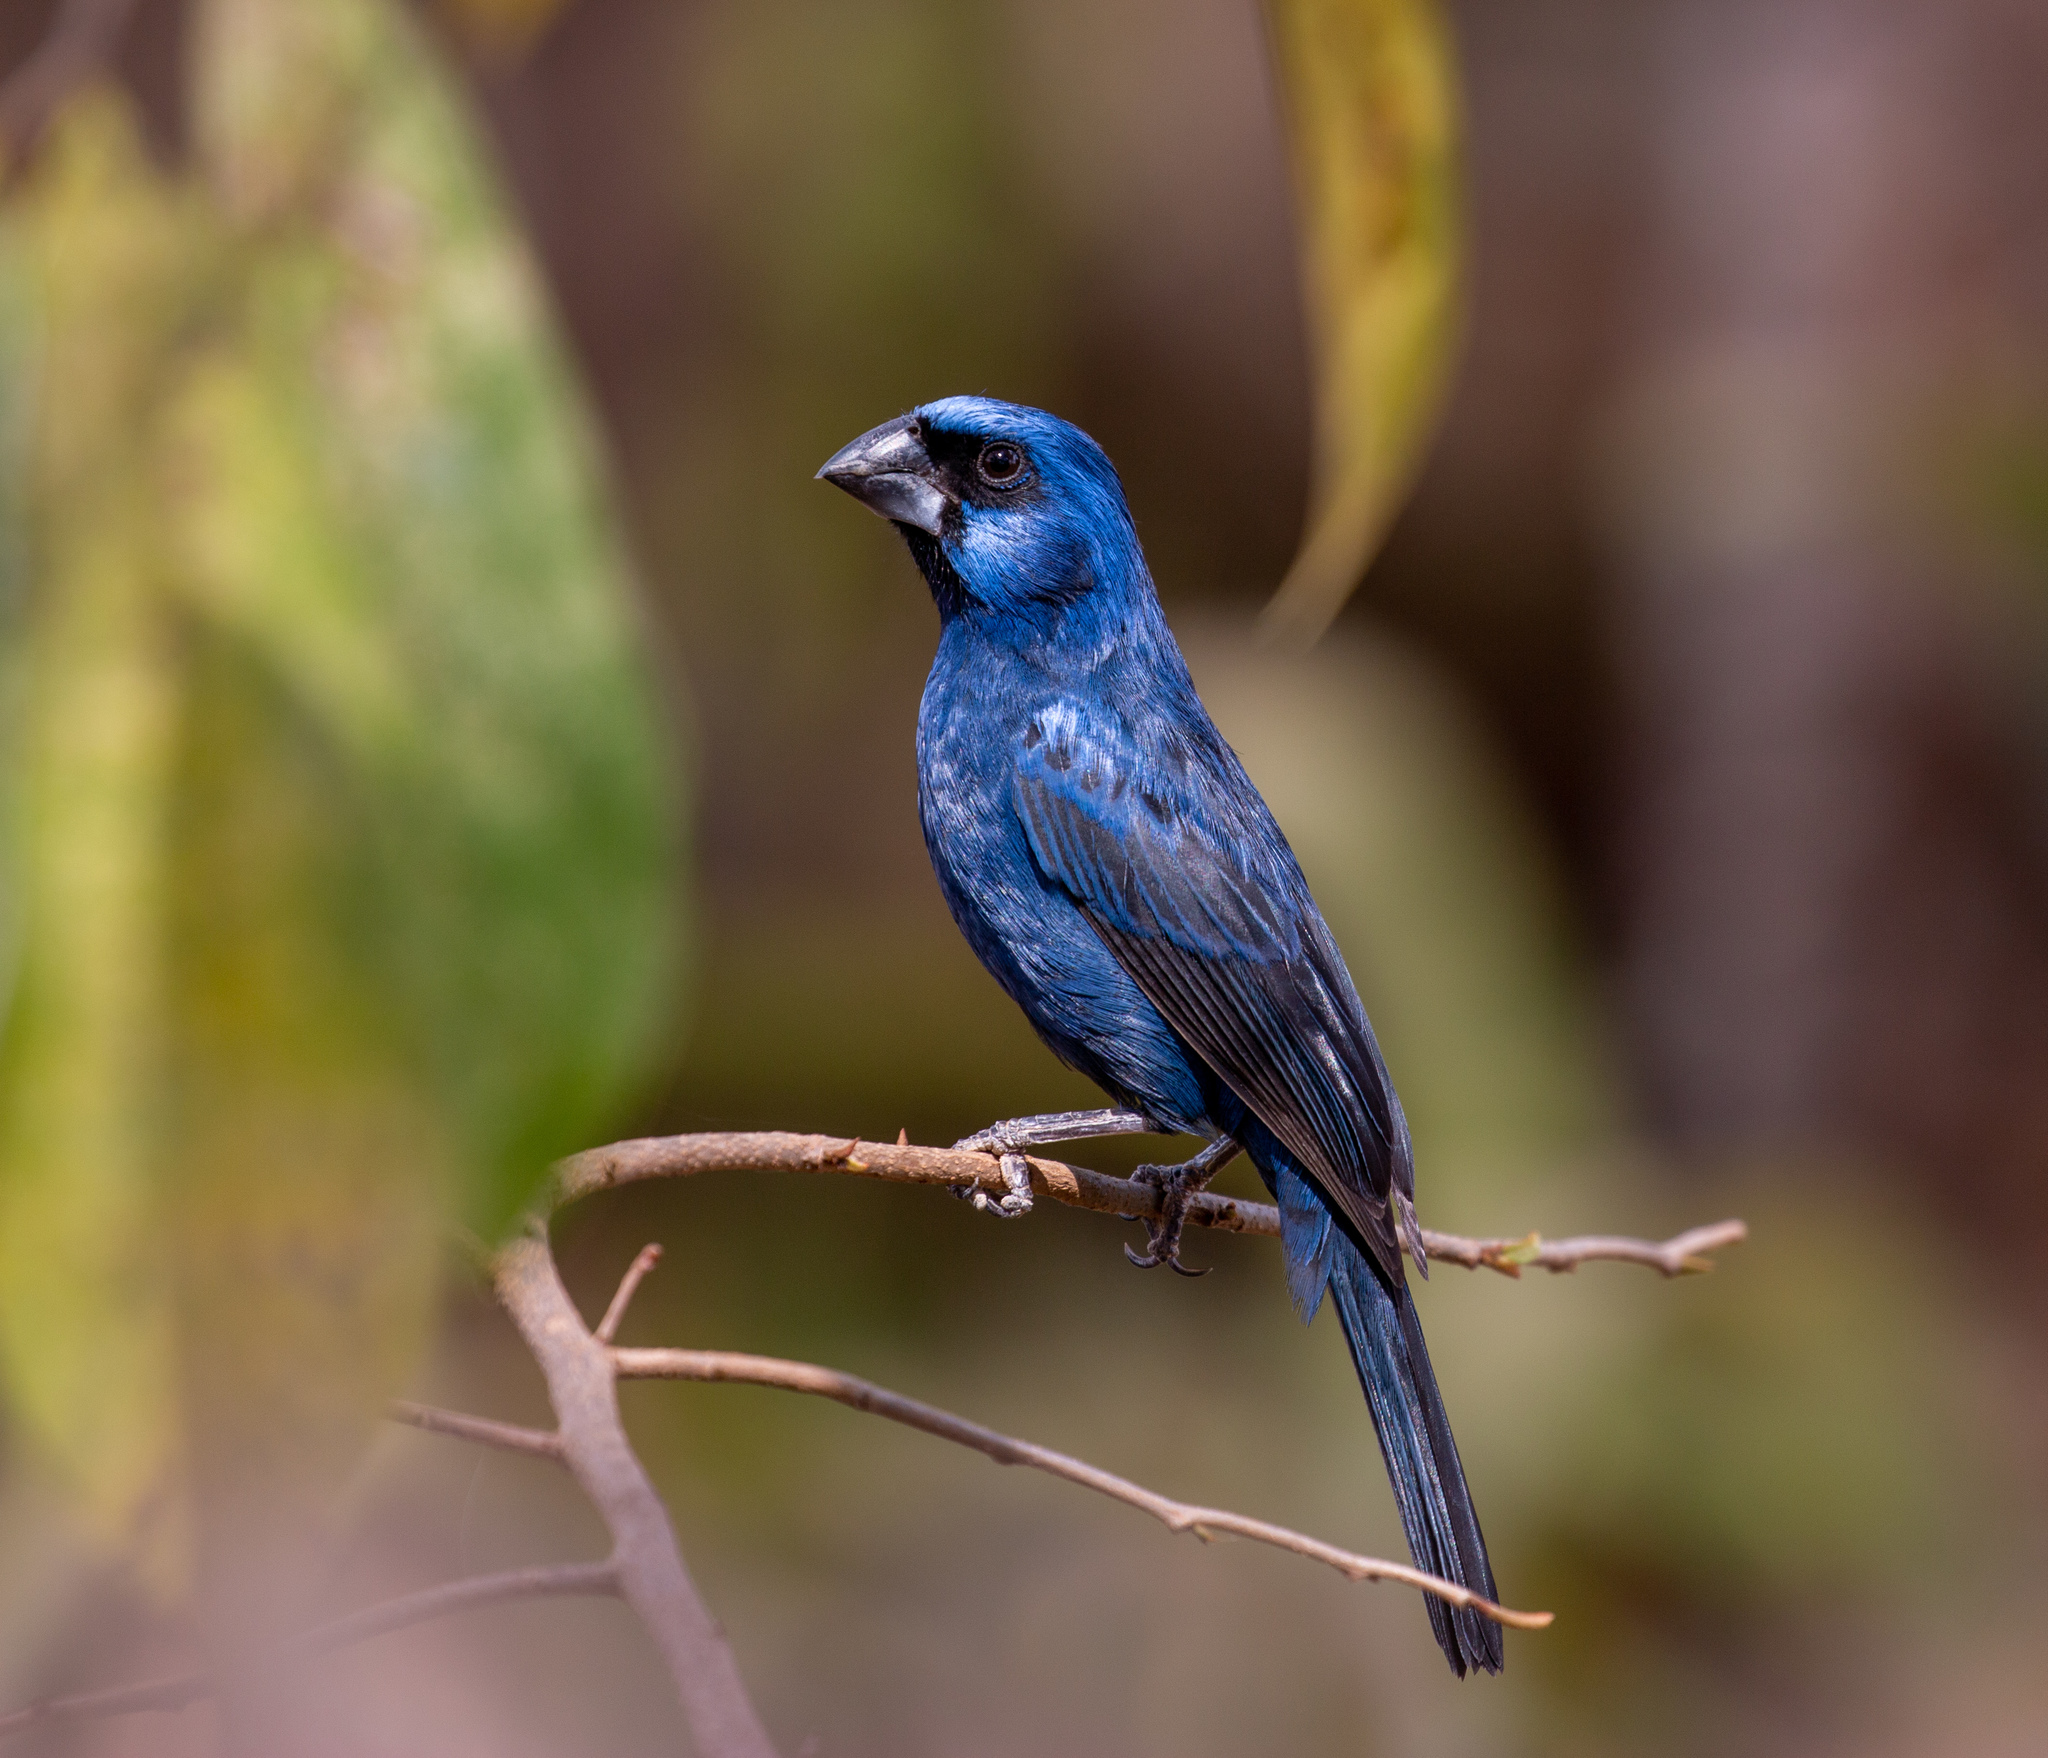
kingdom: Animalia
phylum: Chordata
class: Aves
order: Passeriformes
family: Cardinalidae
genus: Cyanoloxia
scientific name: Cyanoloxia brissonii
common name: Ultramarine grosbeak
